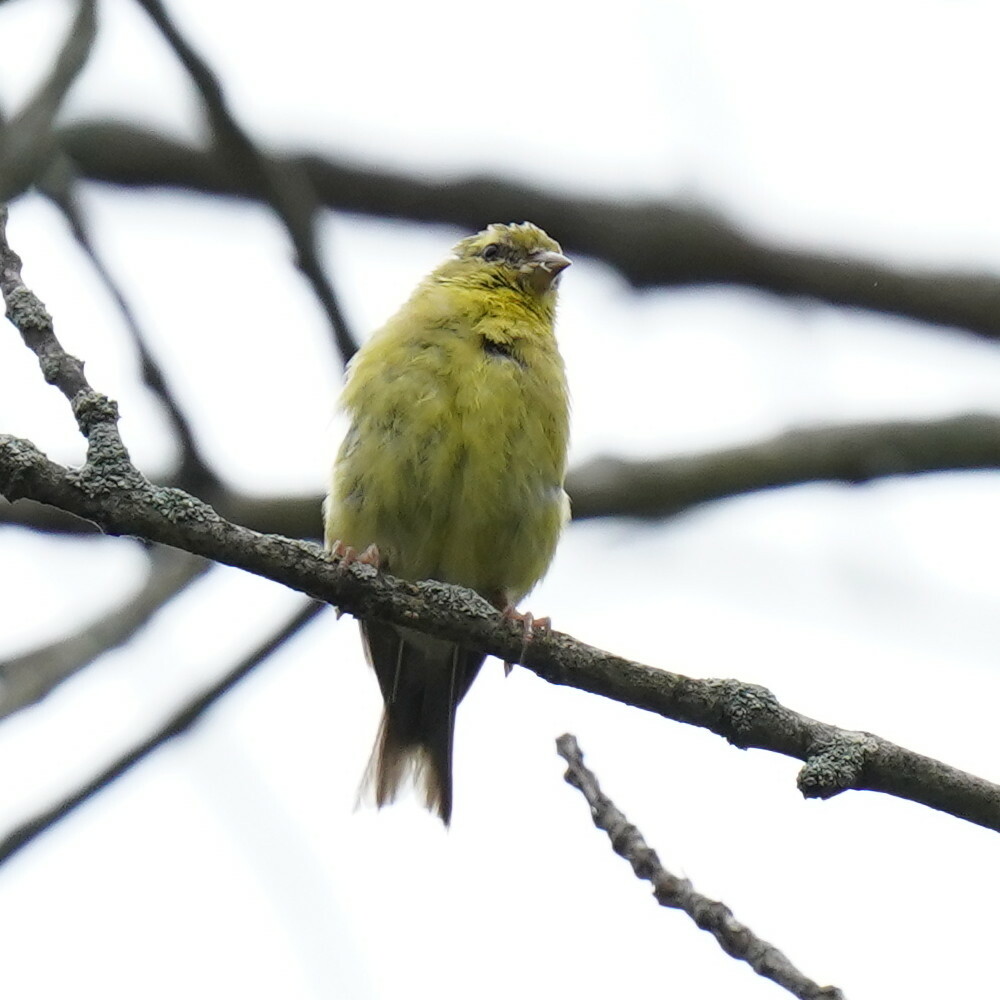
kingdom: Animalia
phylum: Chordata
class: Aves
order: Passeriformes
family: Fringillidae
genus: Spinus
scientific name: Spinus tristis
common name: American goldfinch
